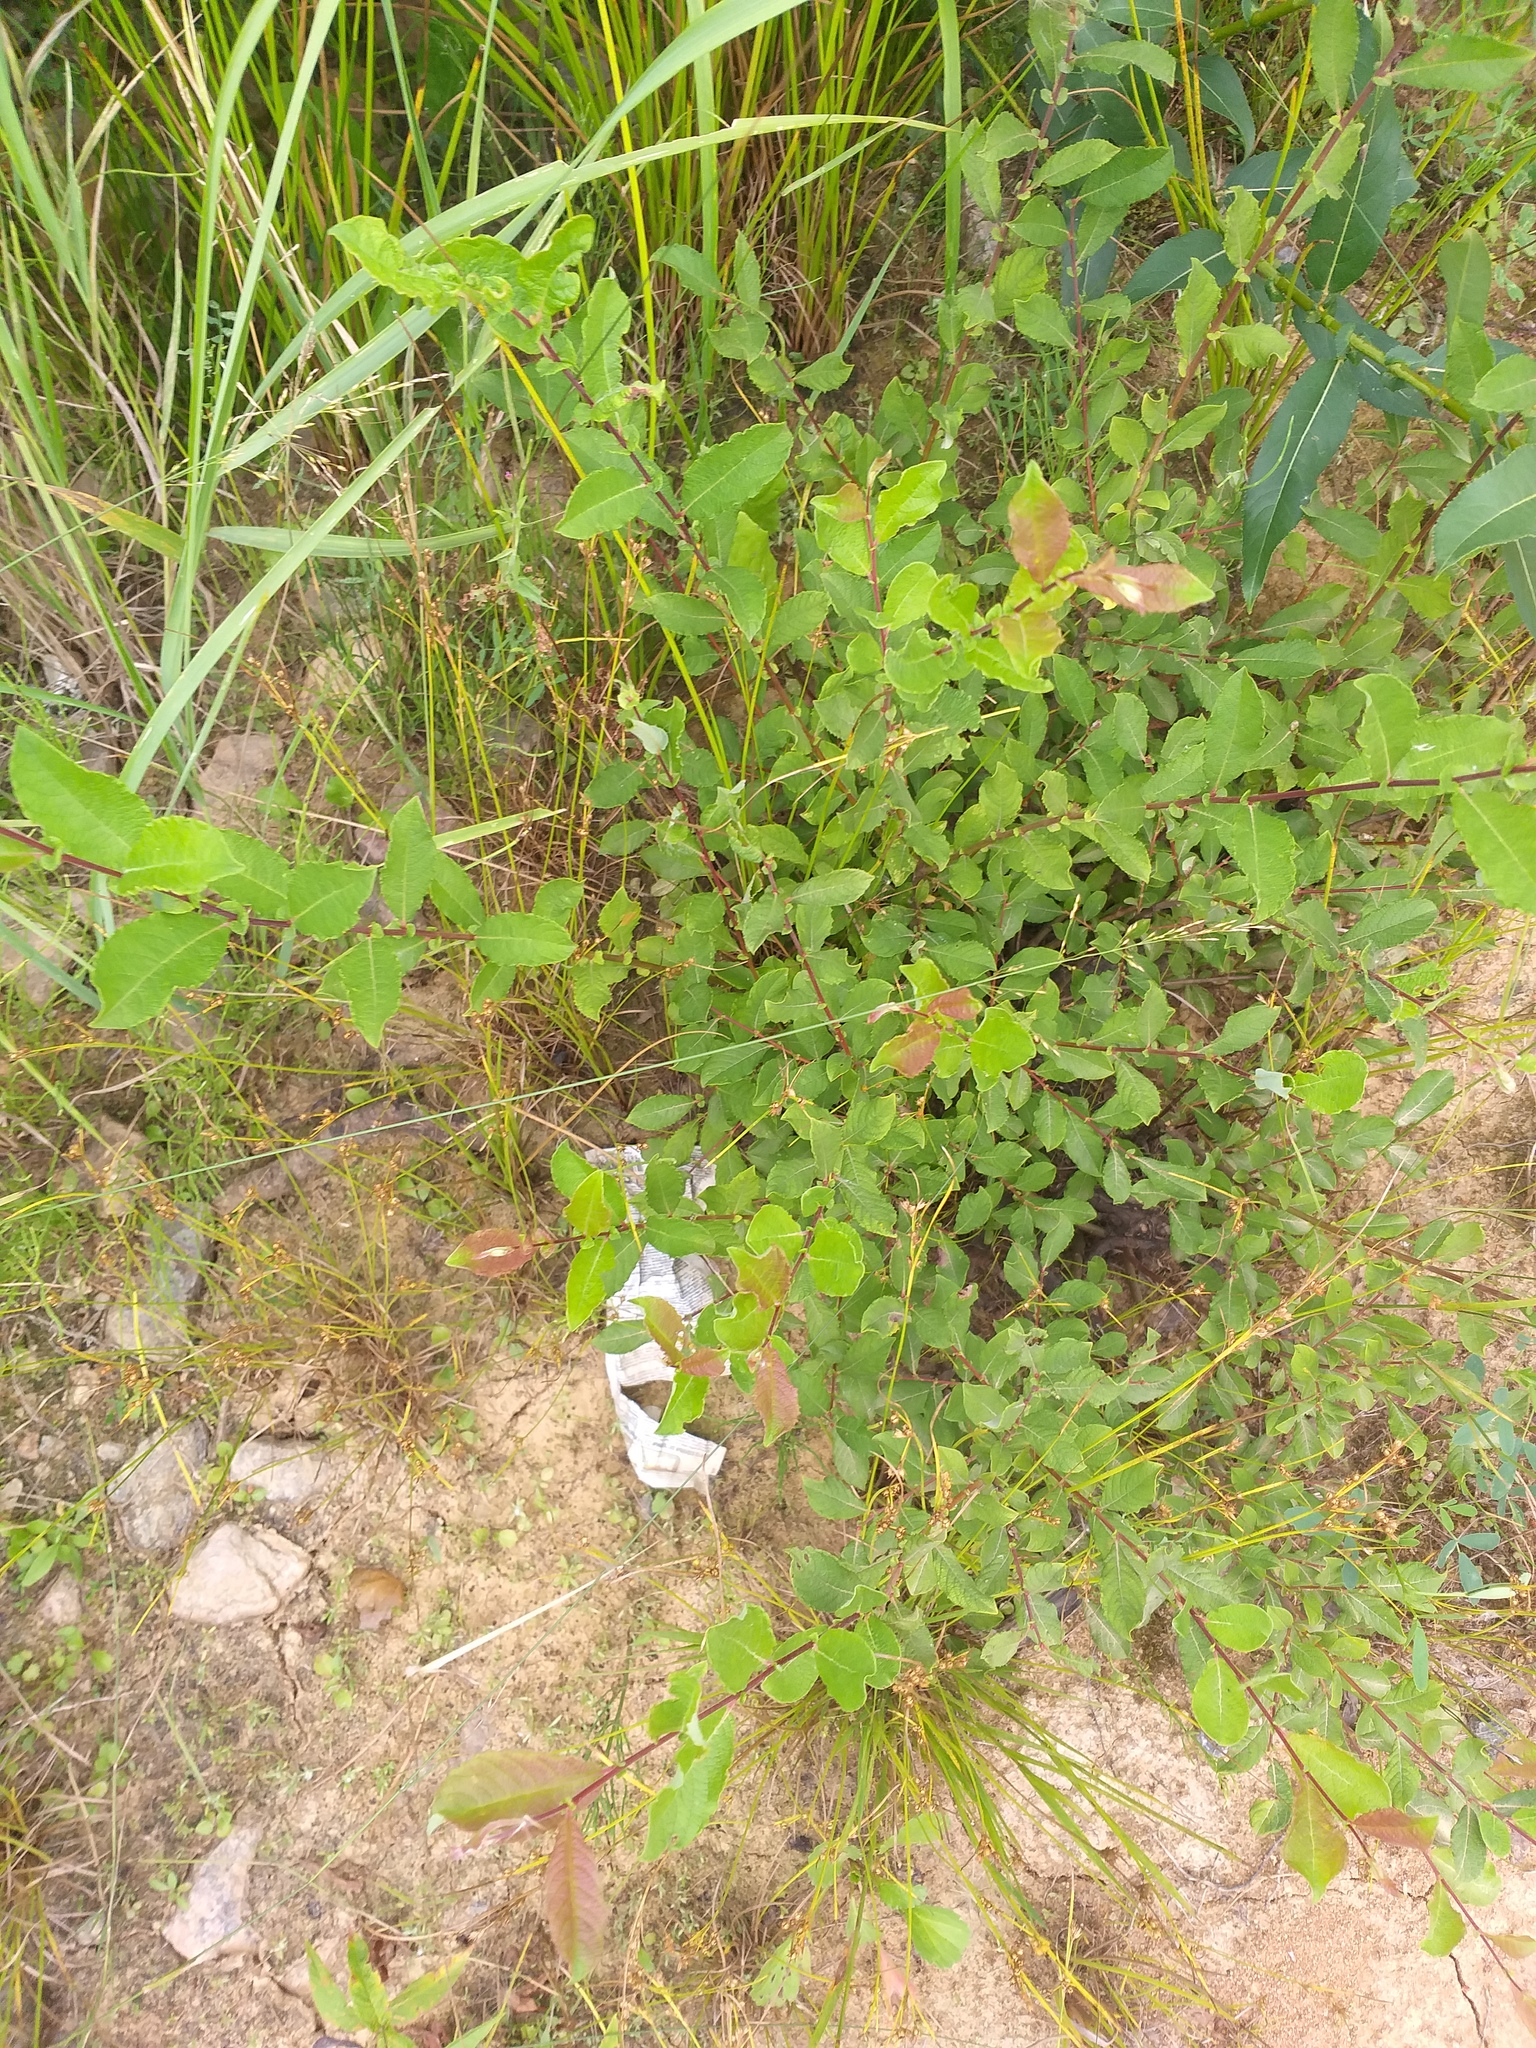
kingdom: Plantae
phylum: Tracheophyta
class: Magnoliopsida
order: Malpighiales
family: Salicaceae
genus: Salix
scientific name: Salix aurita
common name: Eared willow
